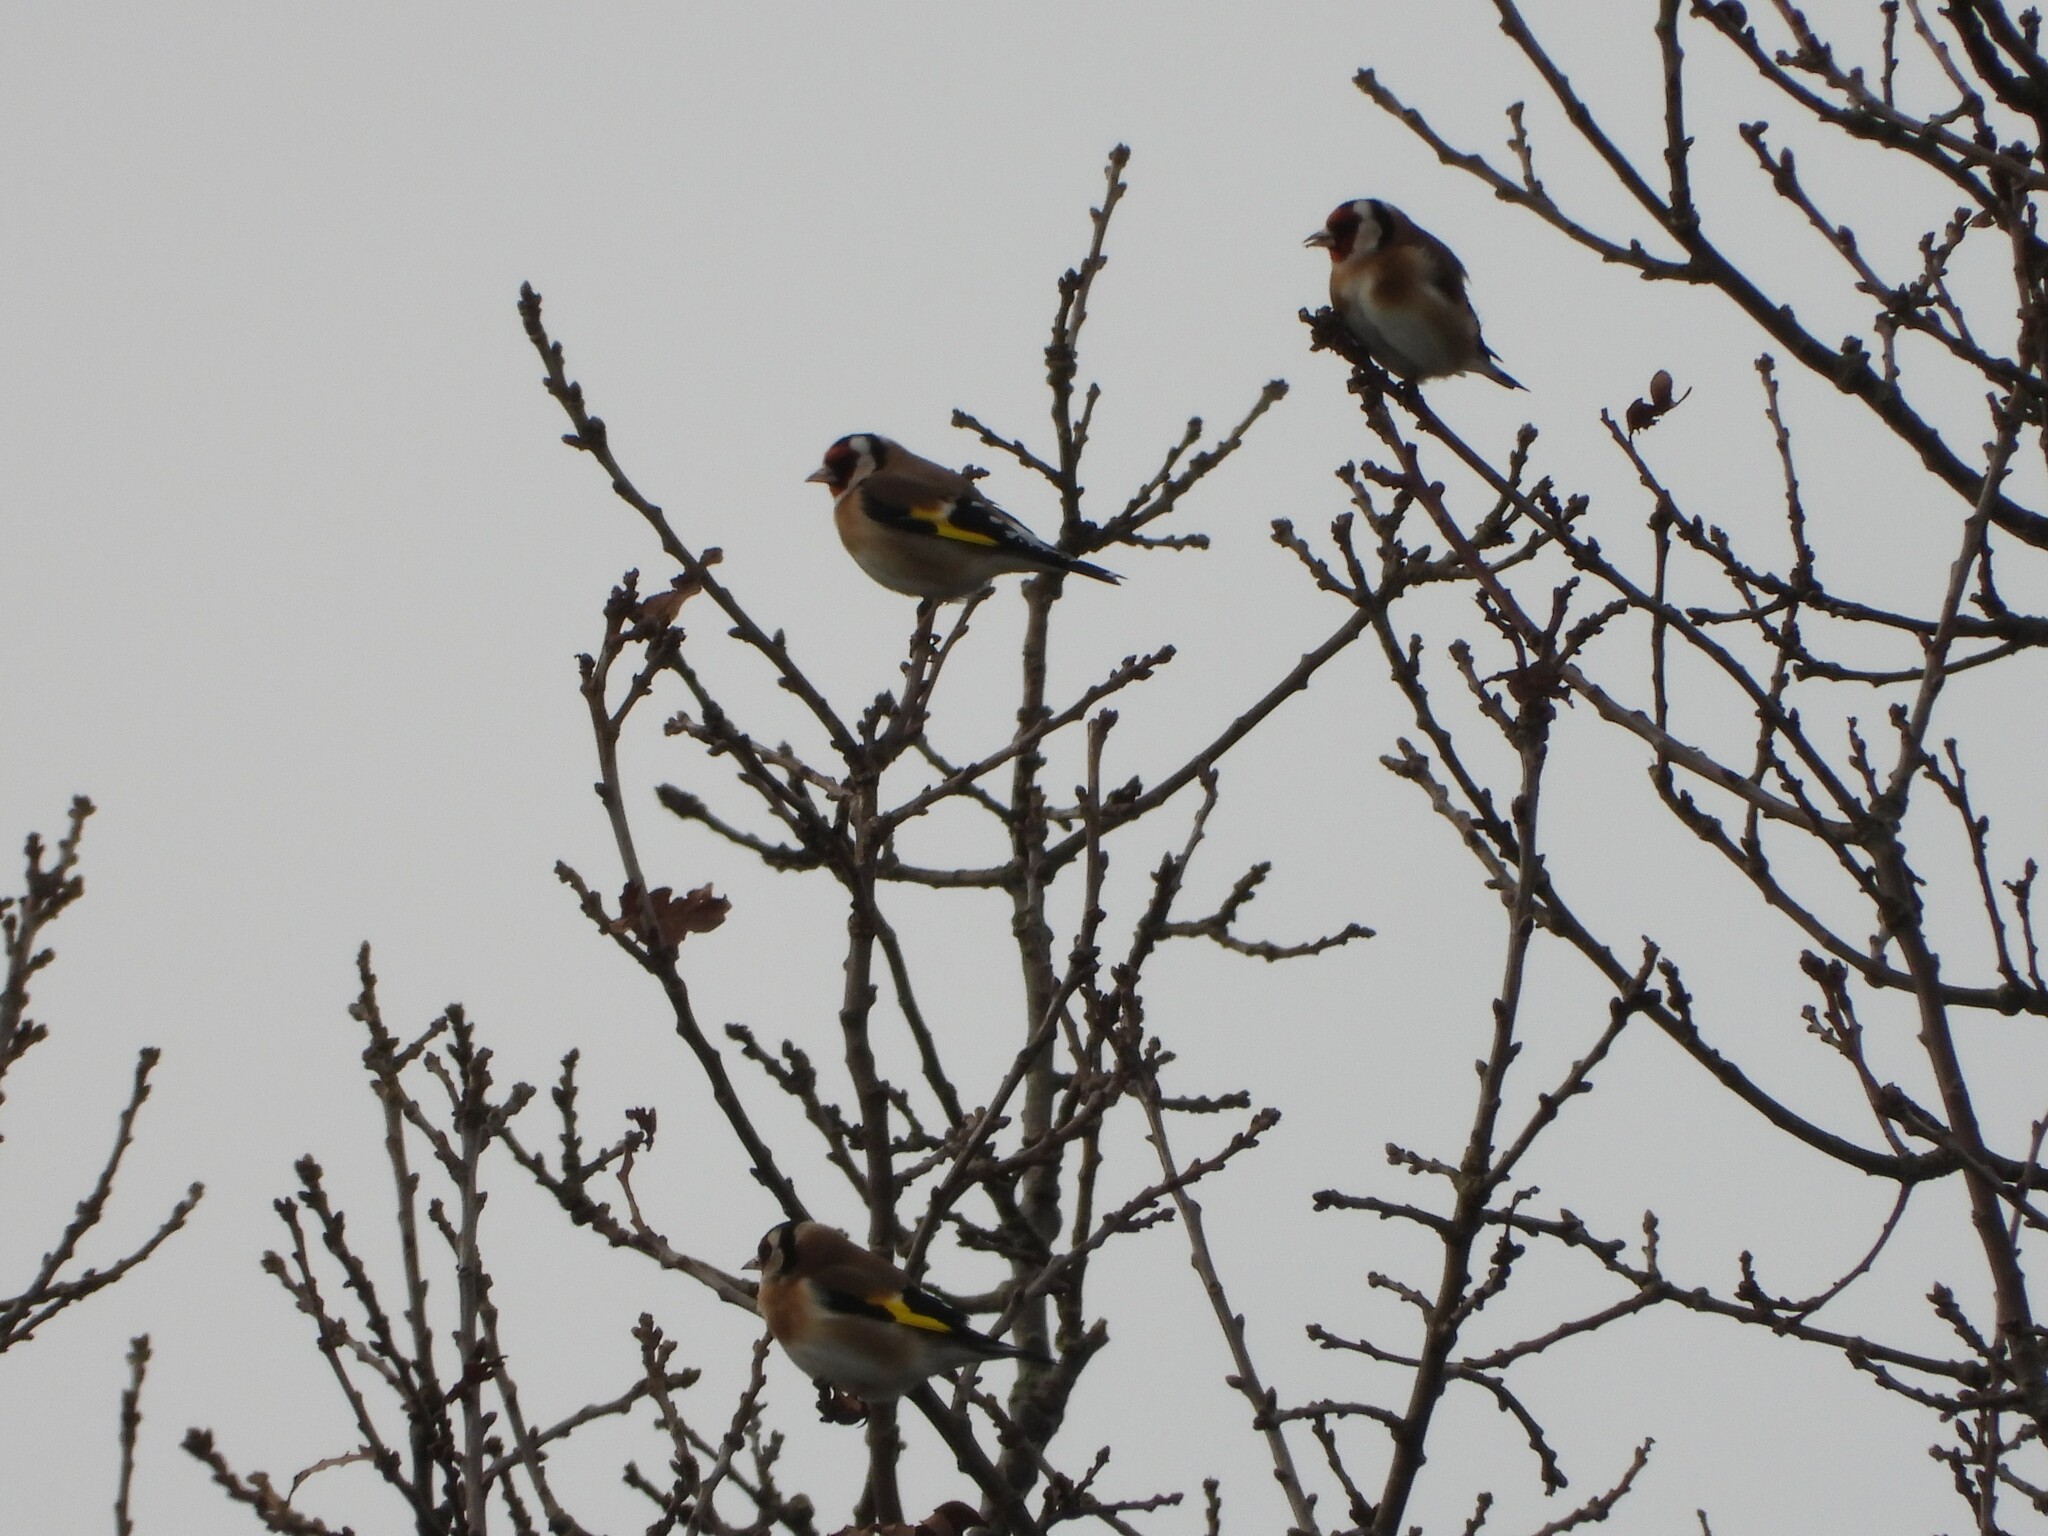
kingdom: Animalia
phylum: Chordata
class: Aves
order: Passeriformes
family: Fringillidae
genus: Carduelis
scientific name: Carduelis carduelis
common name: European goldfinch
